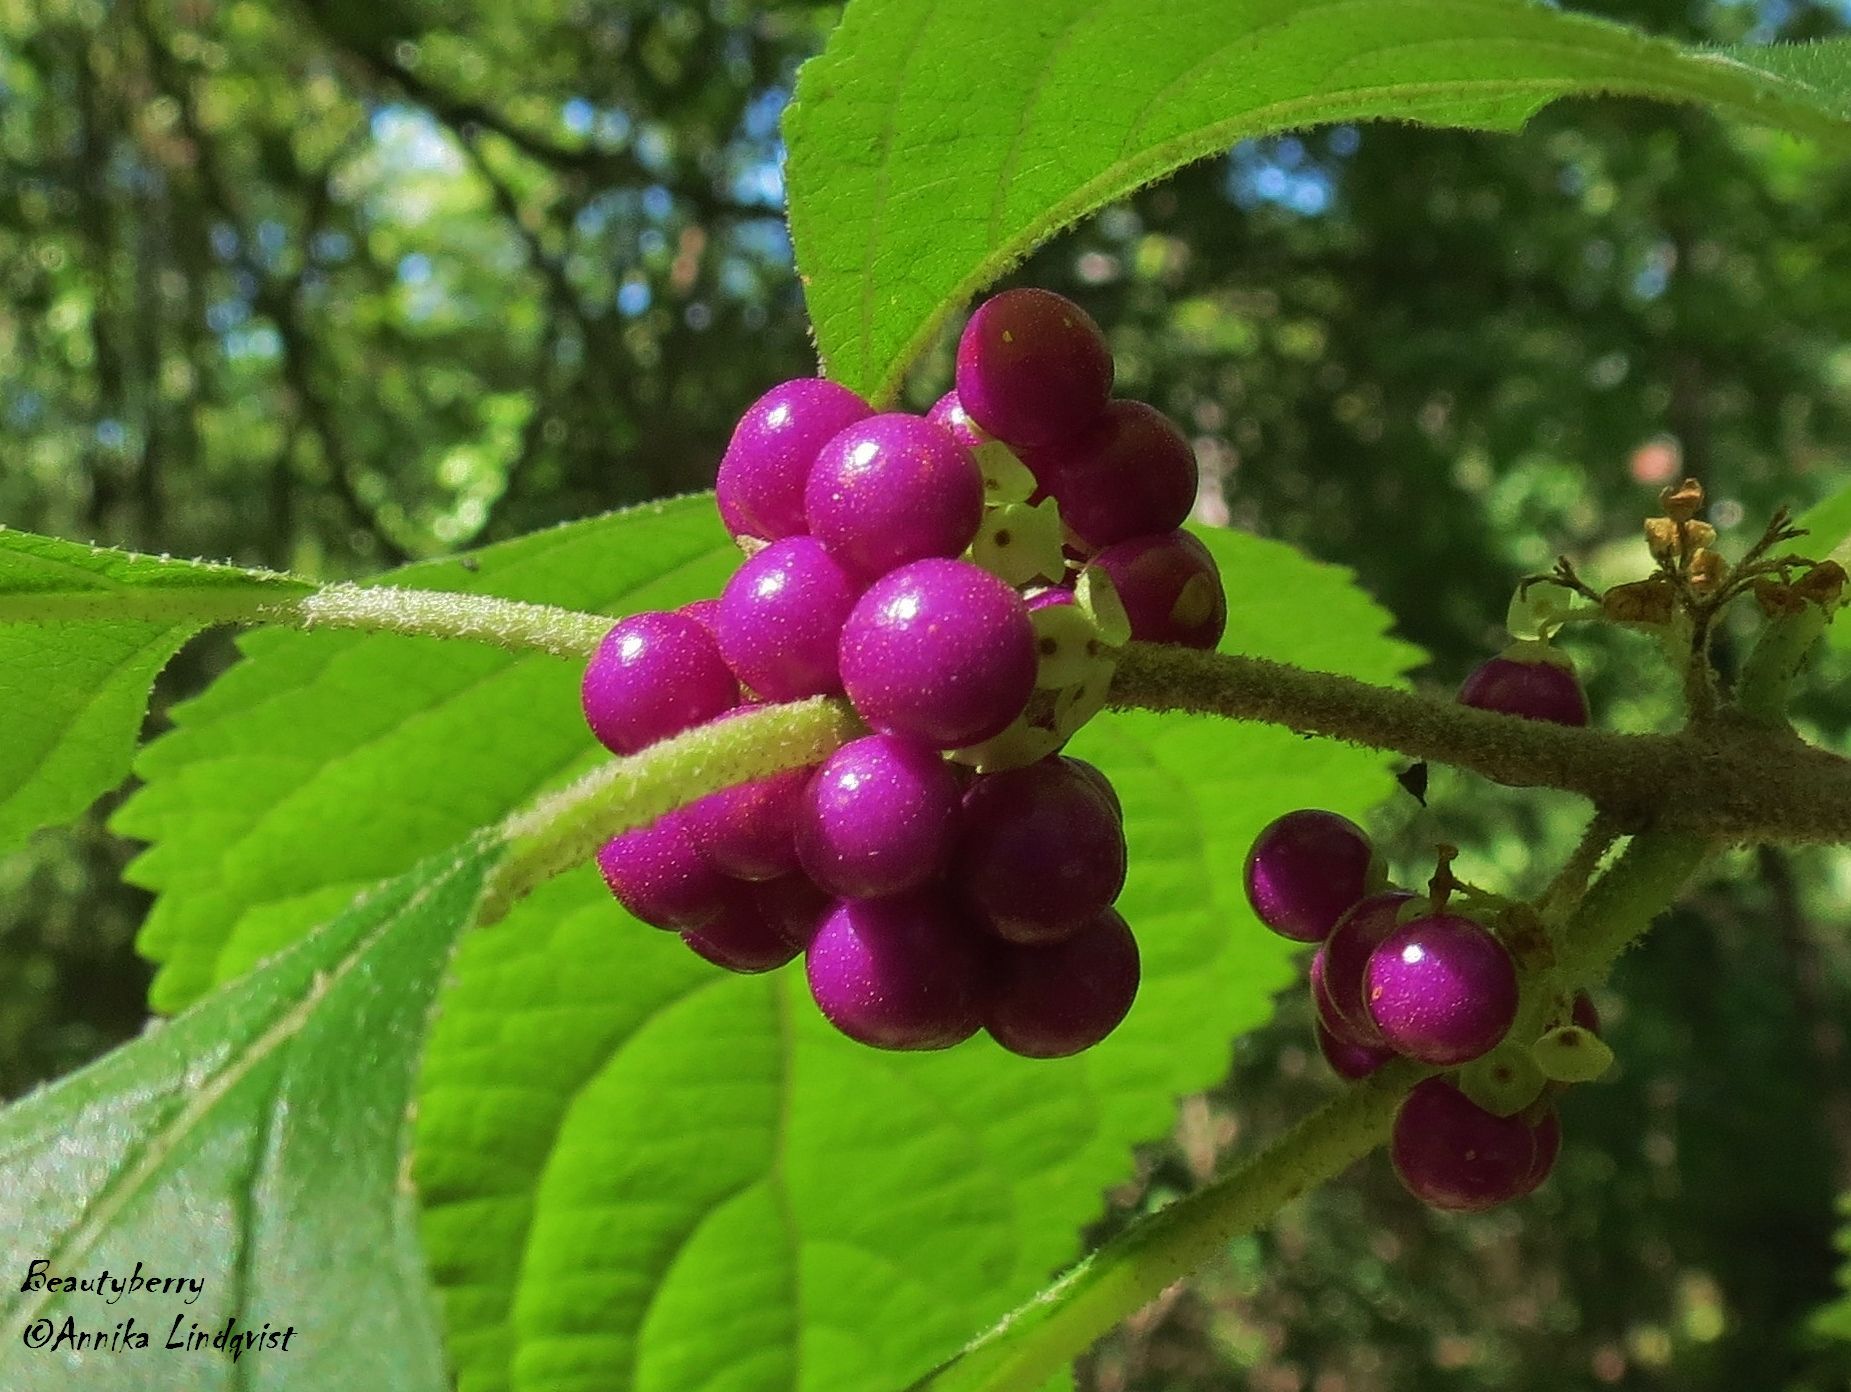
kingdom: Plantae
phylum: Tracheophyta
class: Magnoliopsida
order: Lamiales
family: Lamiaceae
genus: Callicarpa
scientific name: Callicarpa americana
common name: American beautyberry
